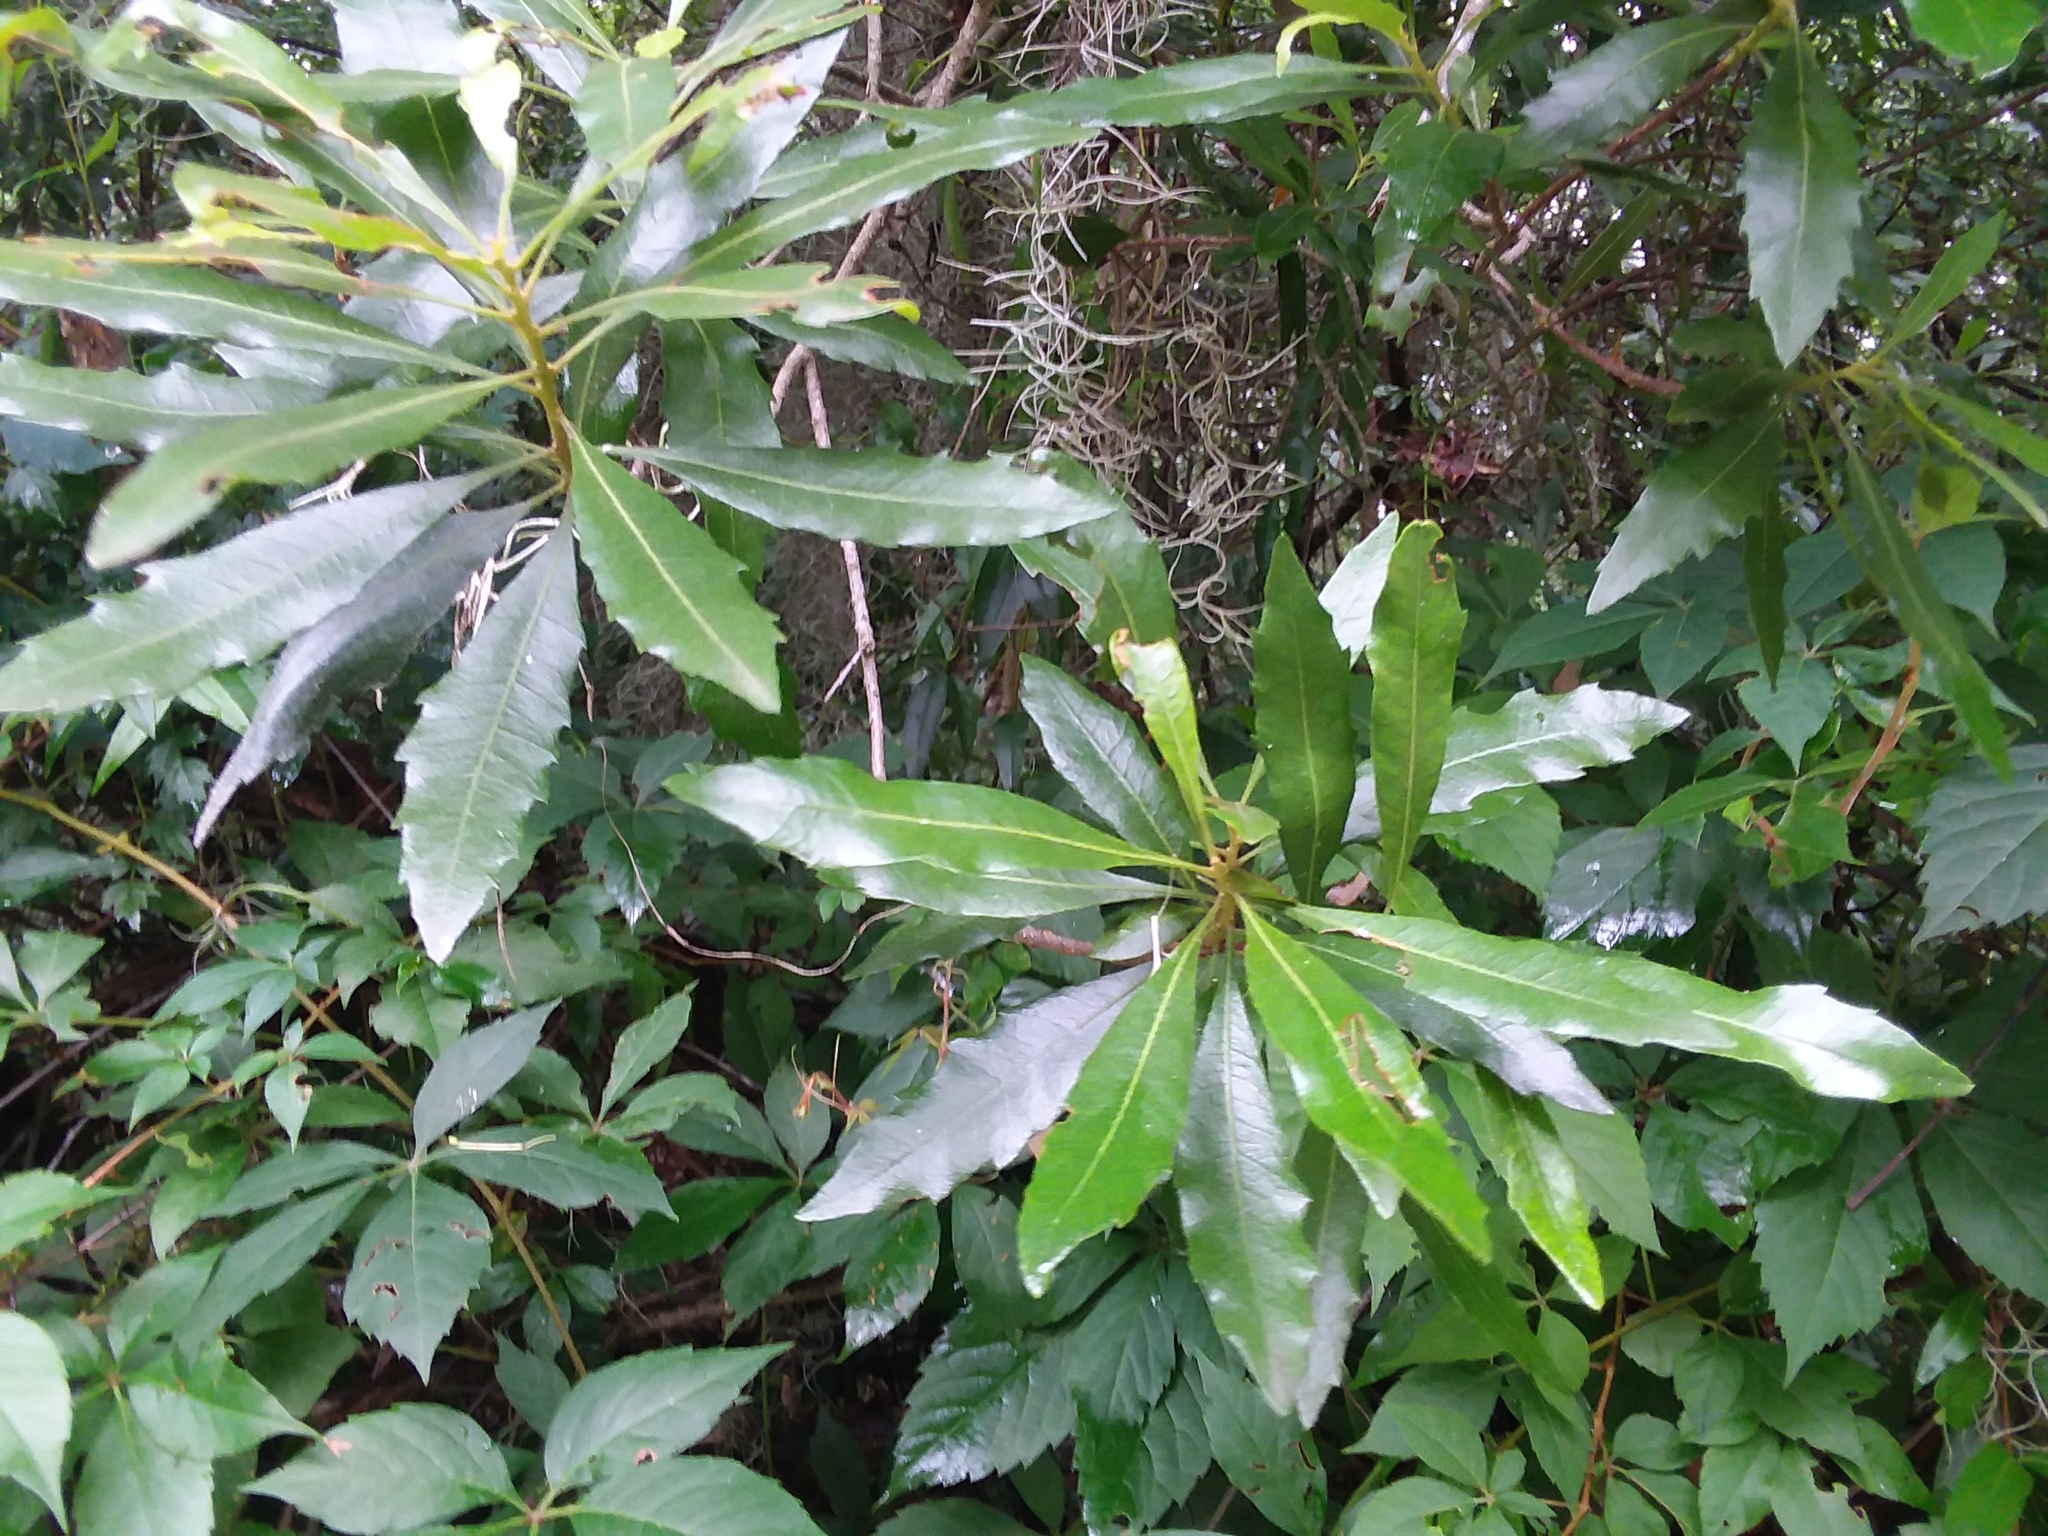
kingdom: Plantae
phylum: Tracheophyta
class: Magnoliopsida
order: Fagales
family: Myricaceae
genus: Morella
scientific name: Morella cerifera
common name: Wax myrtle
